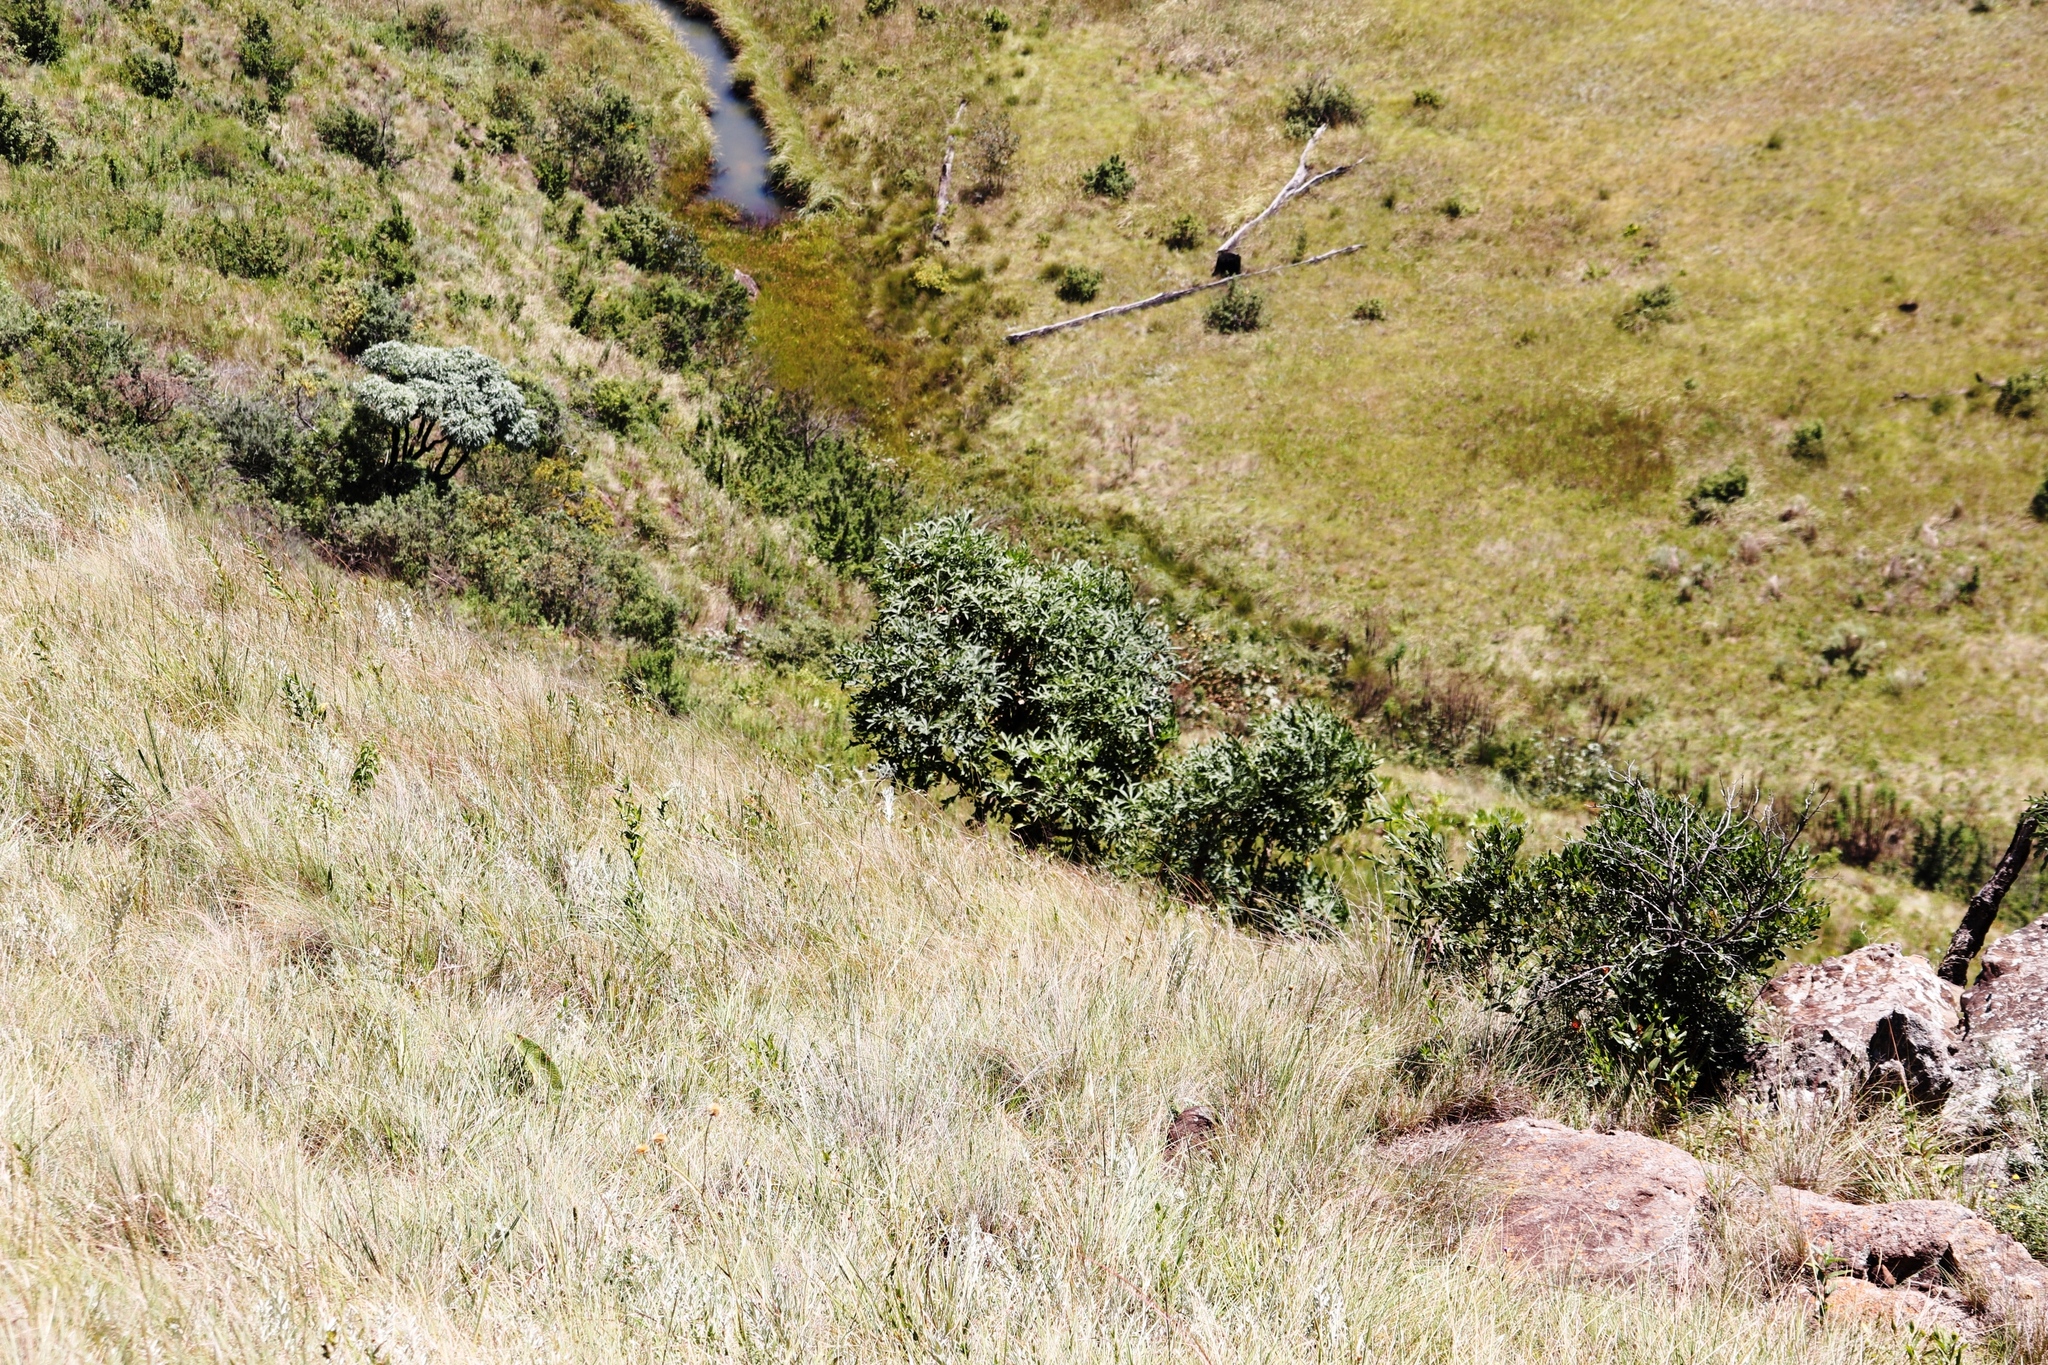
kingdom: Plantae
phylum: Tracheophyta
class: Magnoliopsida
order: Apiales
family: Araliaceae
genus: Cussonia
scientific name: Cussonia paniculata
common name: Cabbagetree
